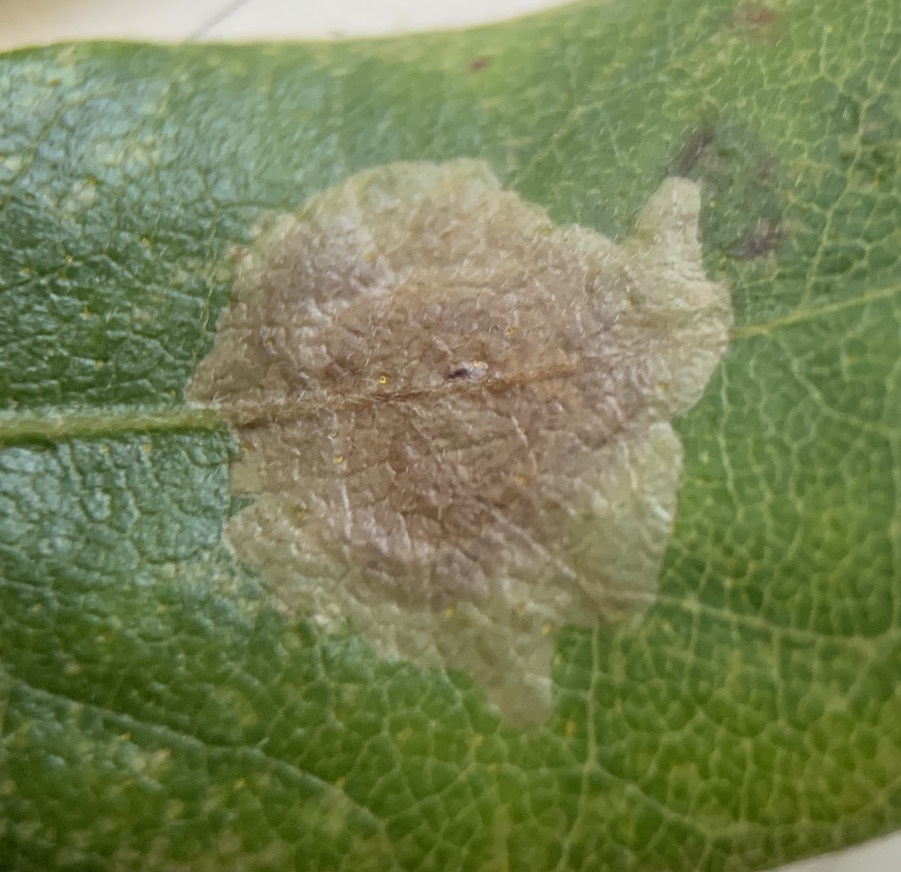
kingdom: Animalia
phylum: Arthropoda
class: Insecta
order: Lepidoptera
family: Gracillariidae
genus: Cameraria
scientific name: Cameraria picturatella
